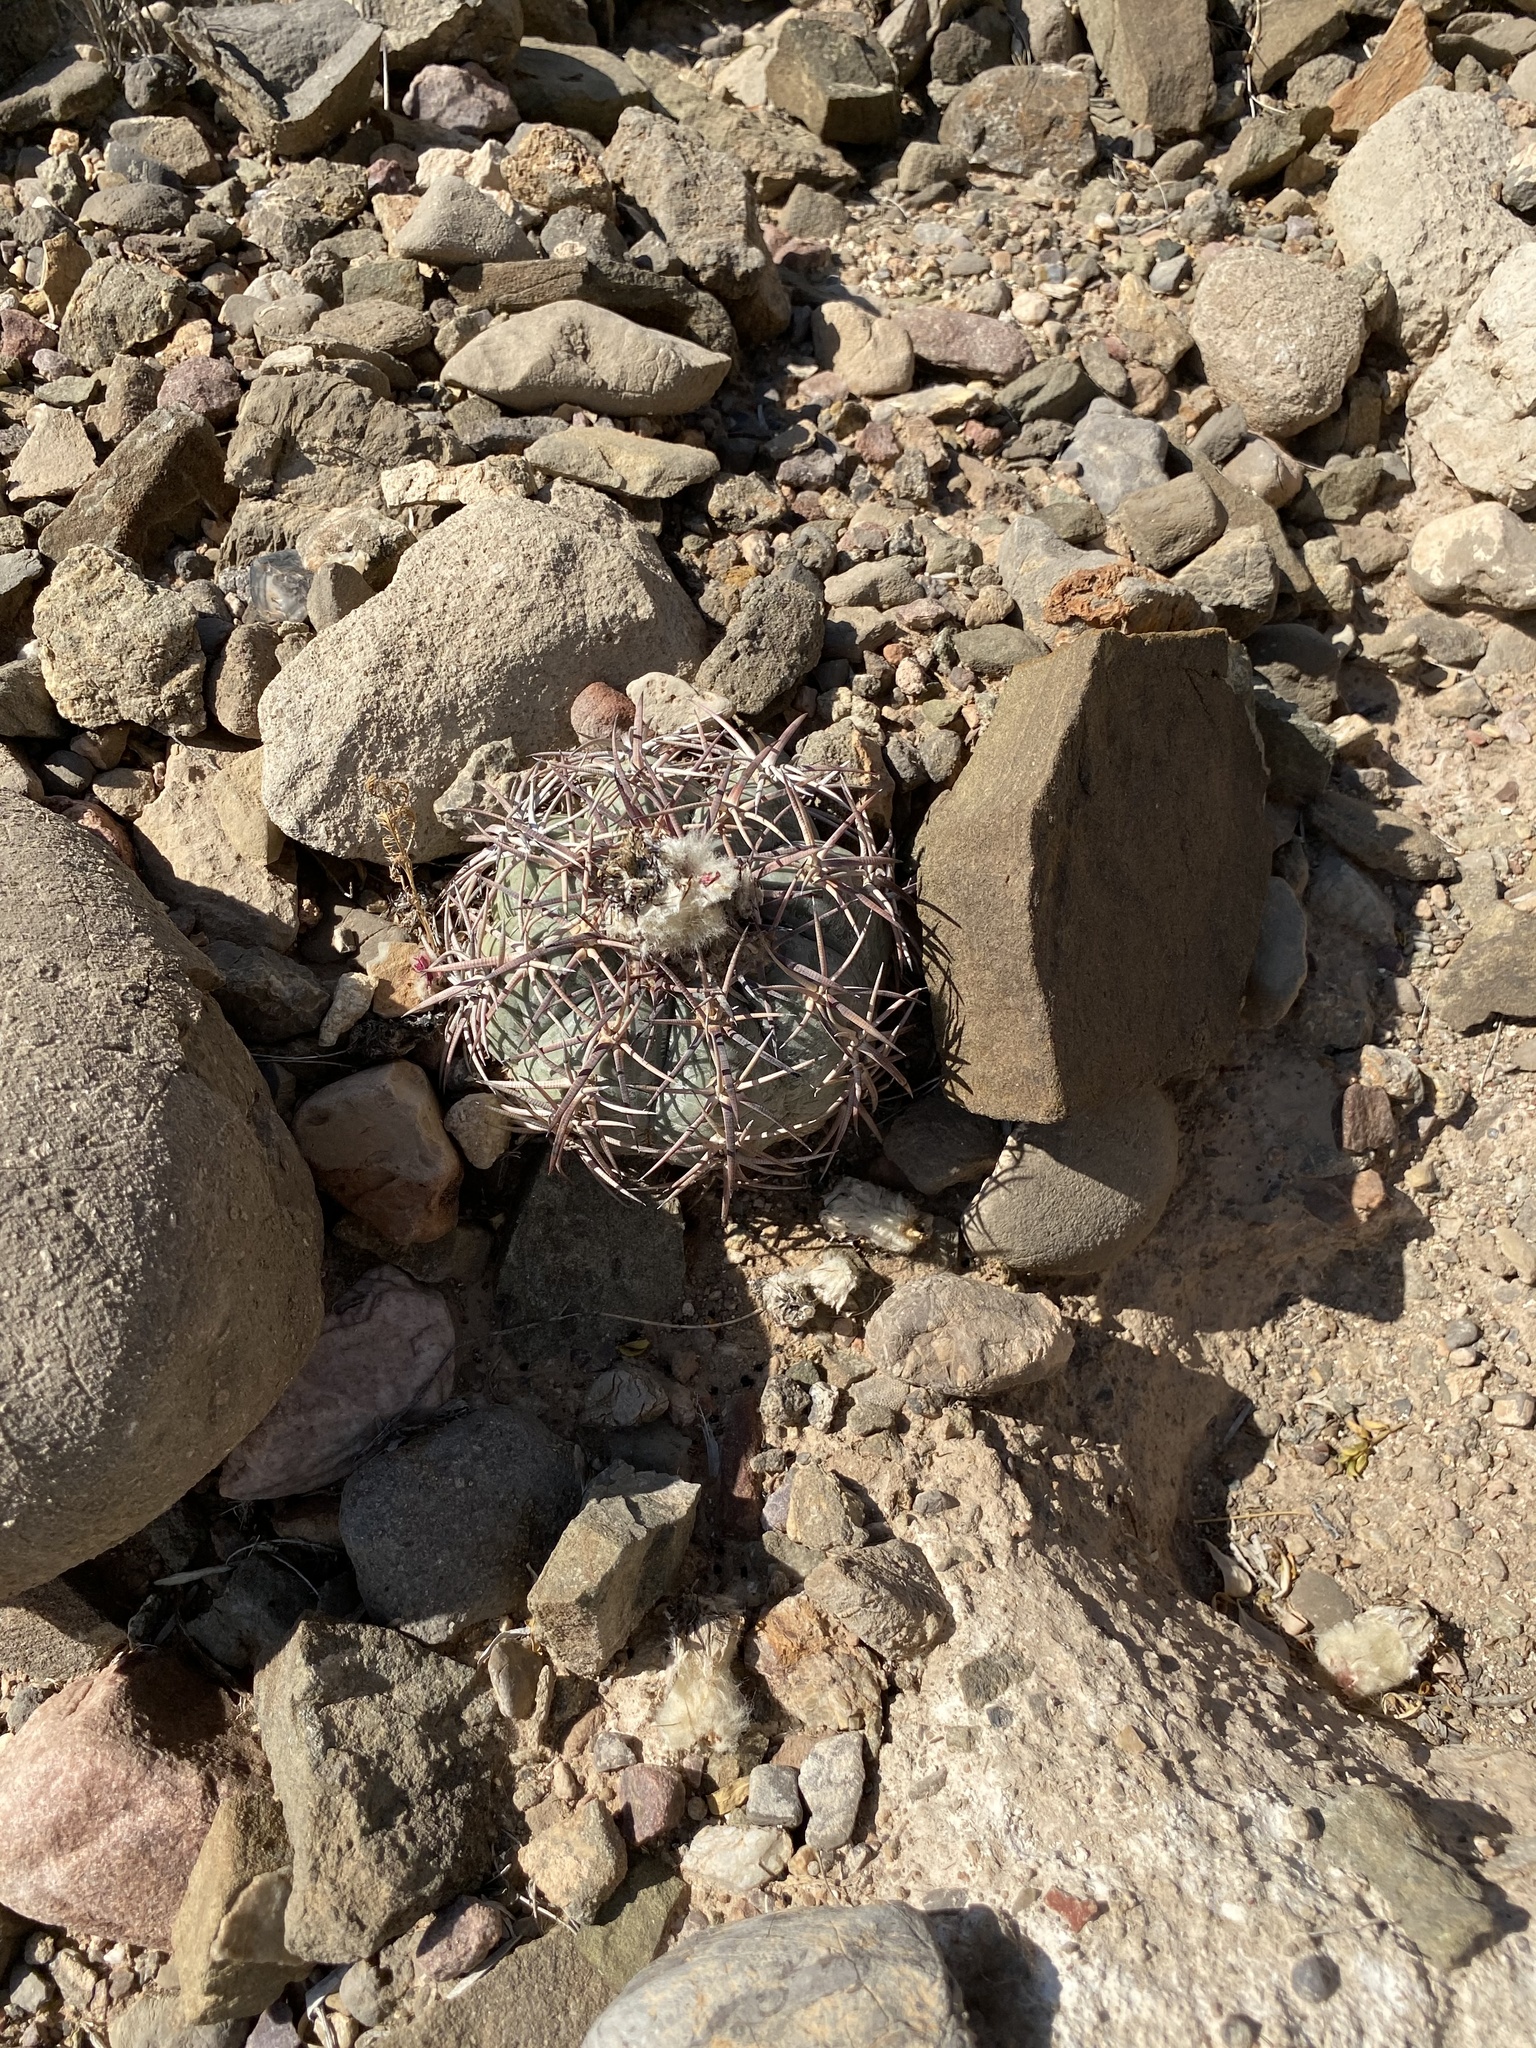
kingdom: Plantae
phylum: Tracheophyta
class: Magnoliopsida
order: Caryophyllales
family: Cactaceae
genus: Echinocactus
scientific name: Echinocactus horizonthalonius
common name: Devilshead
